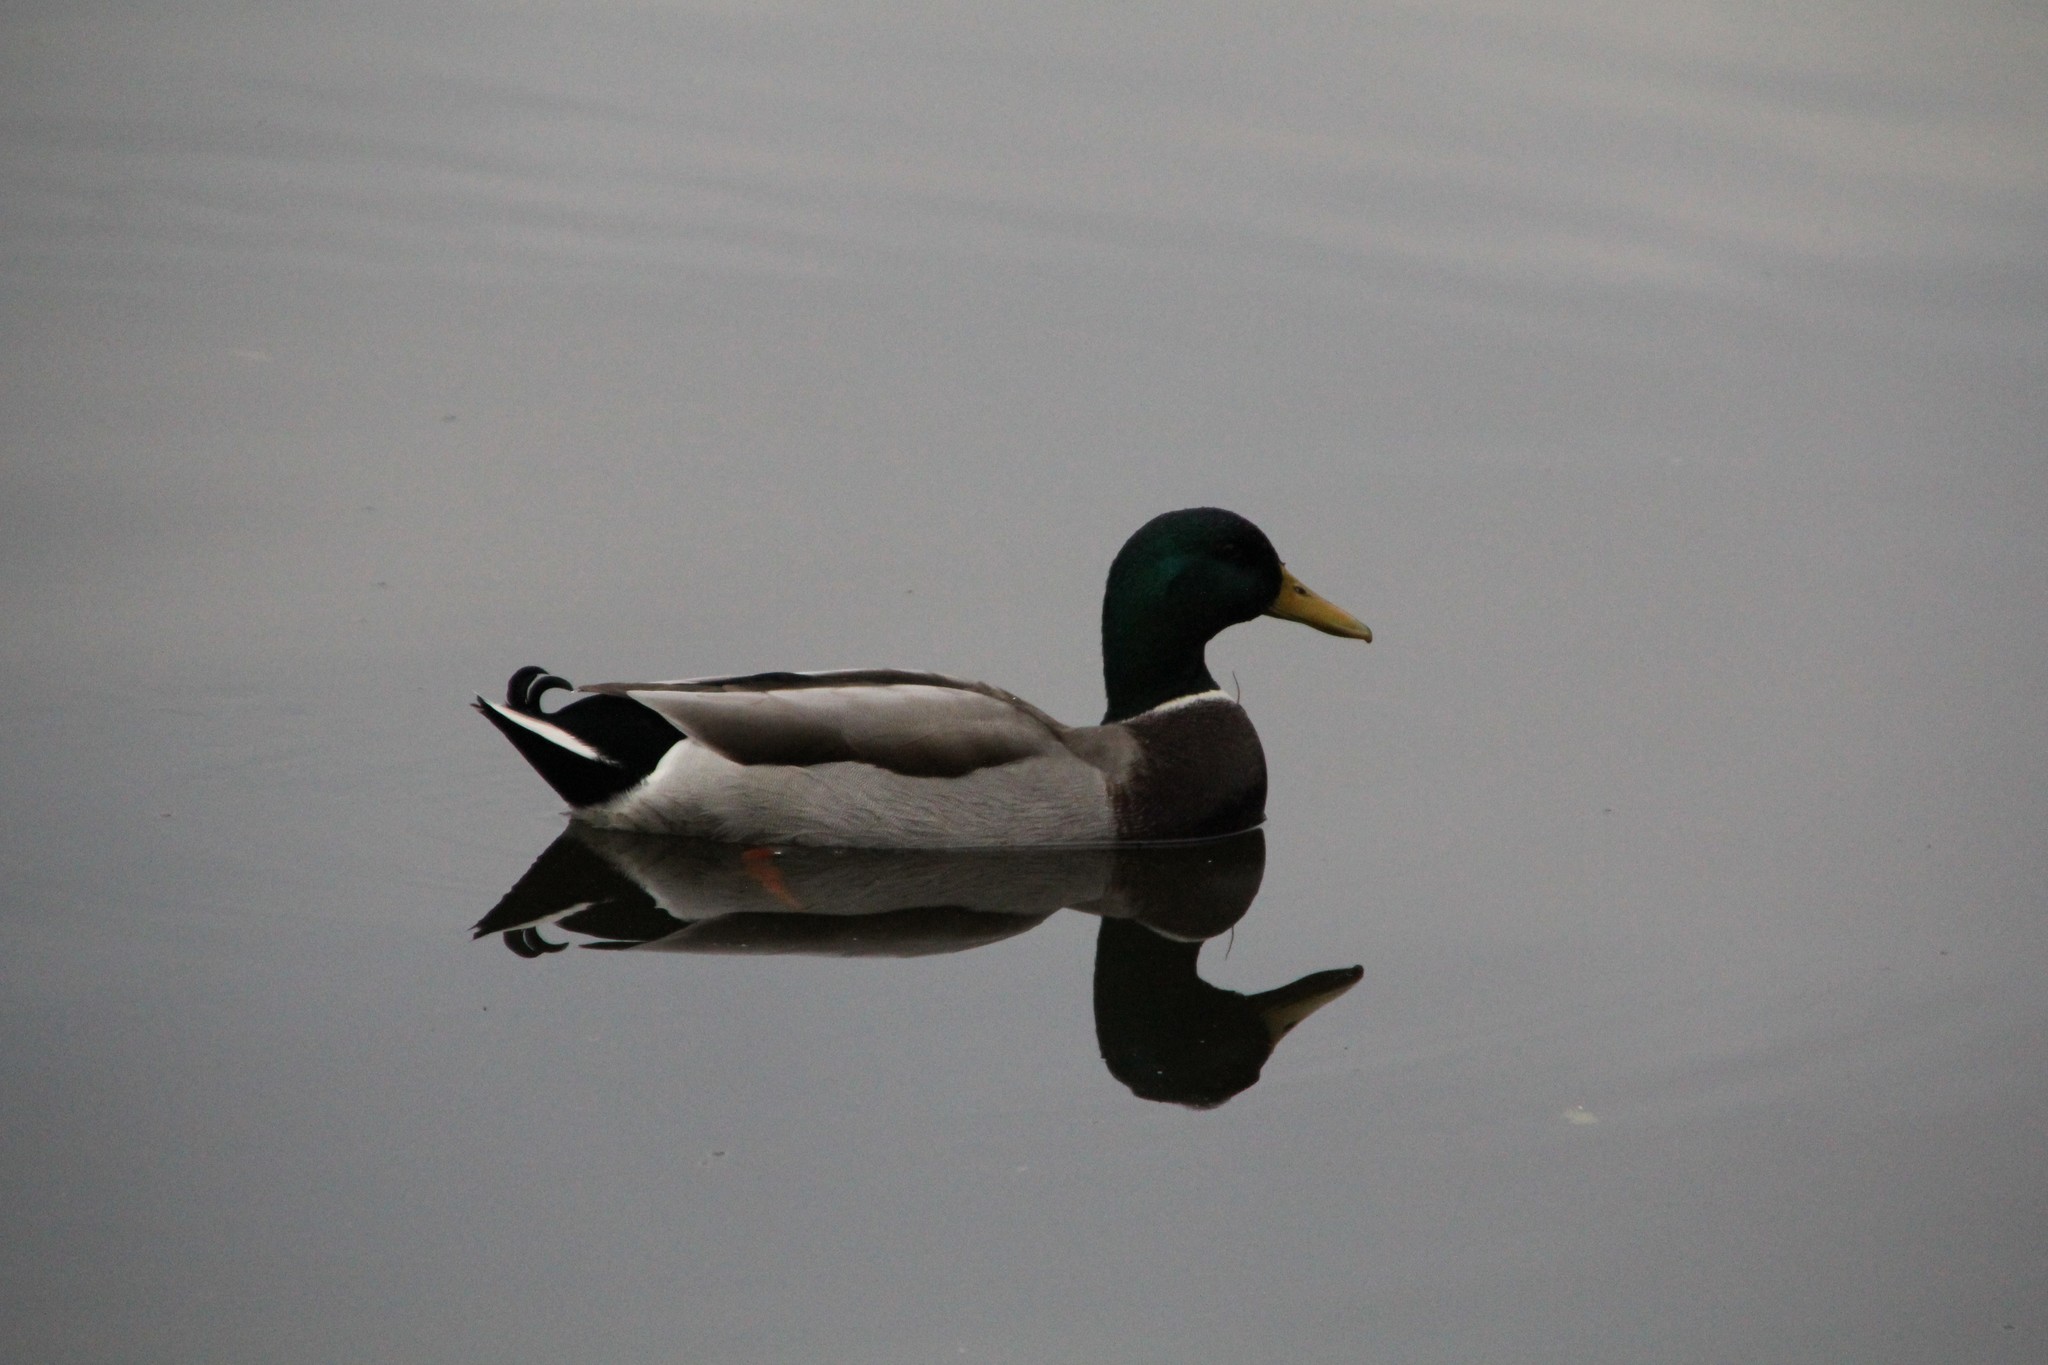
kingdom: Animalia
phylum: Chordata
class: Aves
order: Anseriformes
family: Anatidae
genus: Anas
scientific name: Anas platyrhynchos
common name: Mallard
